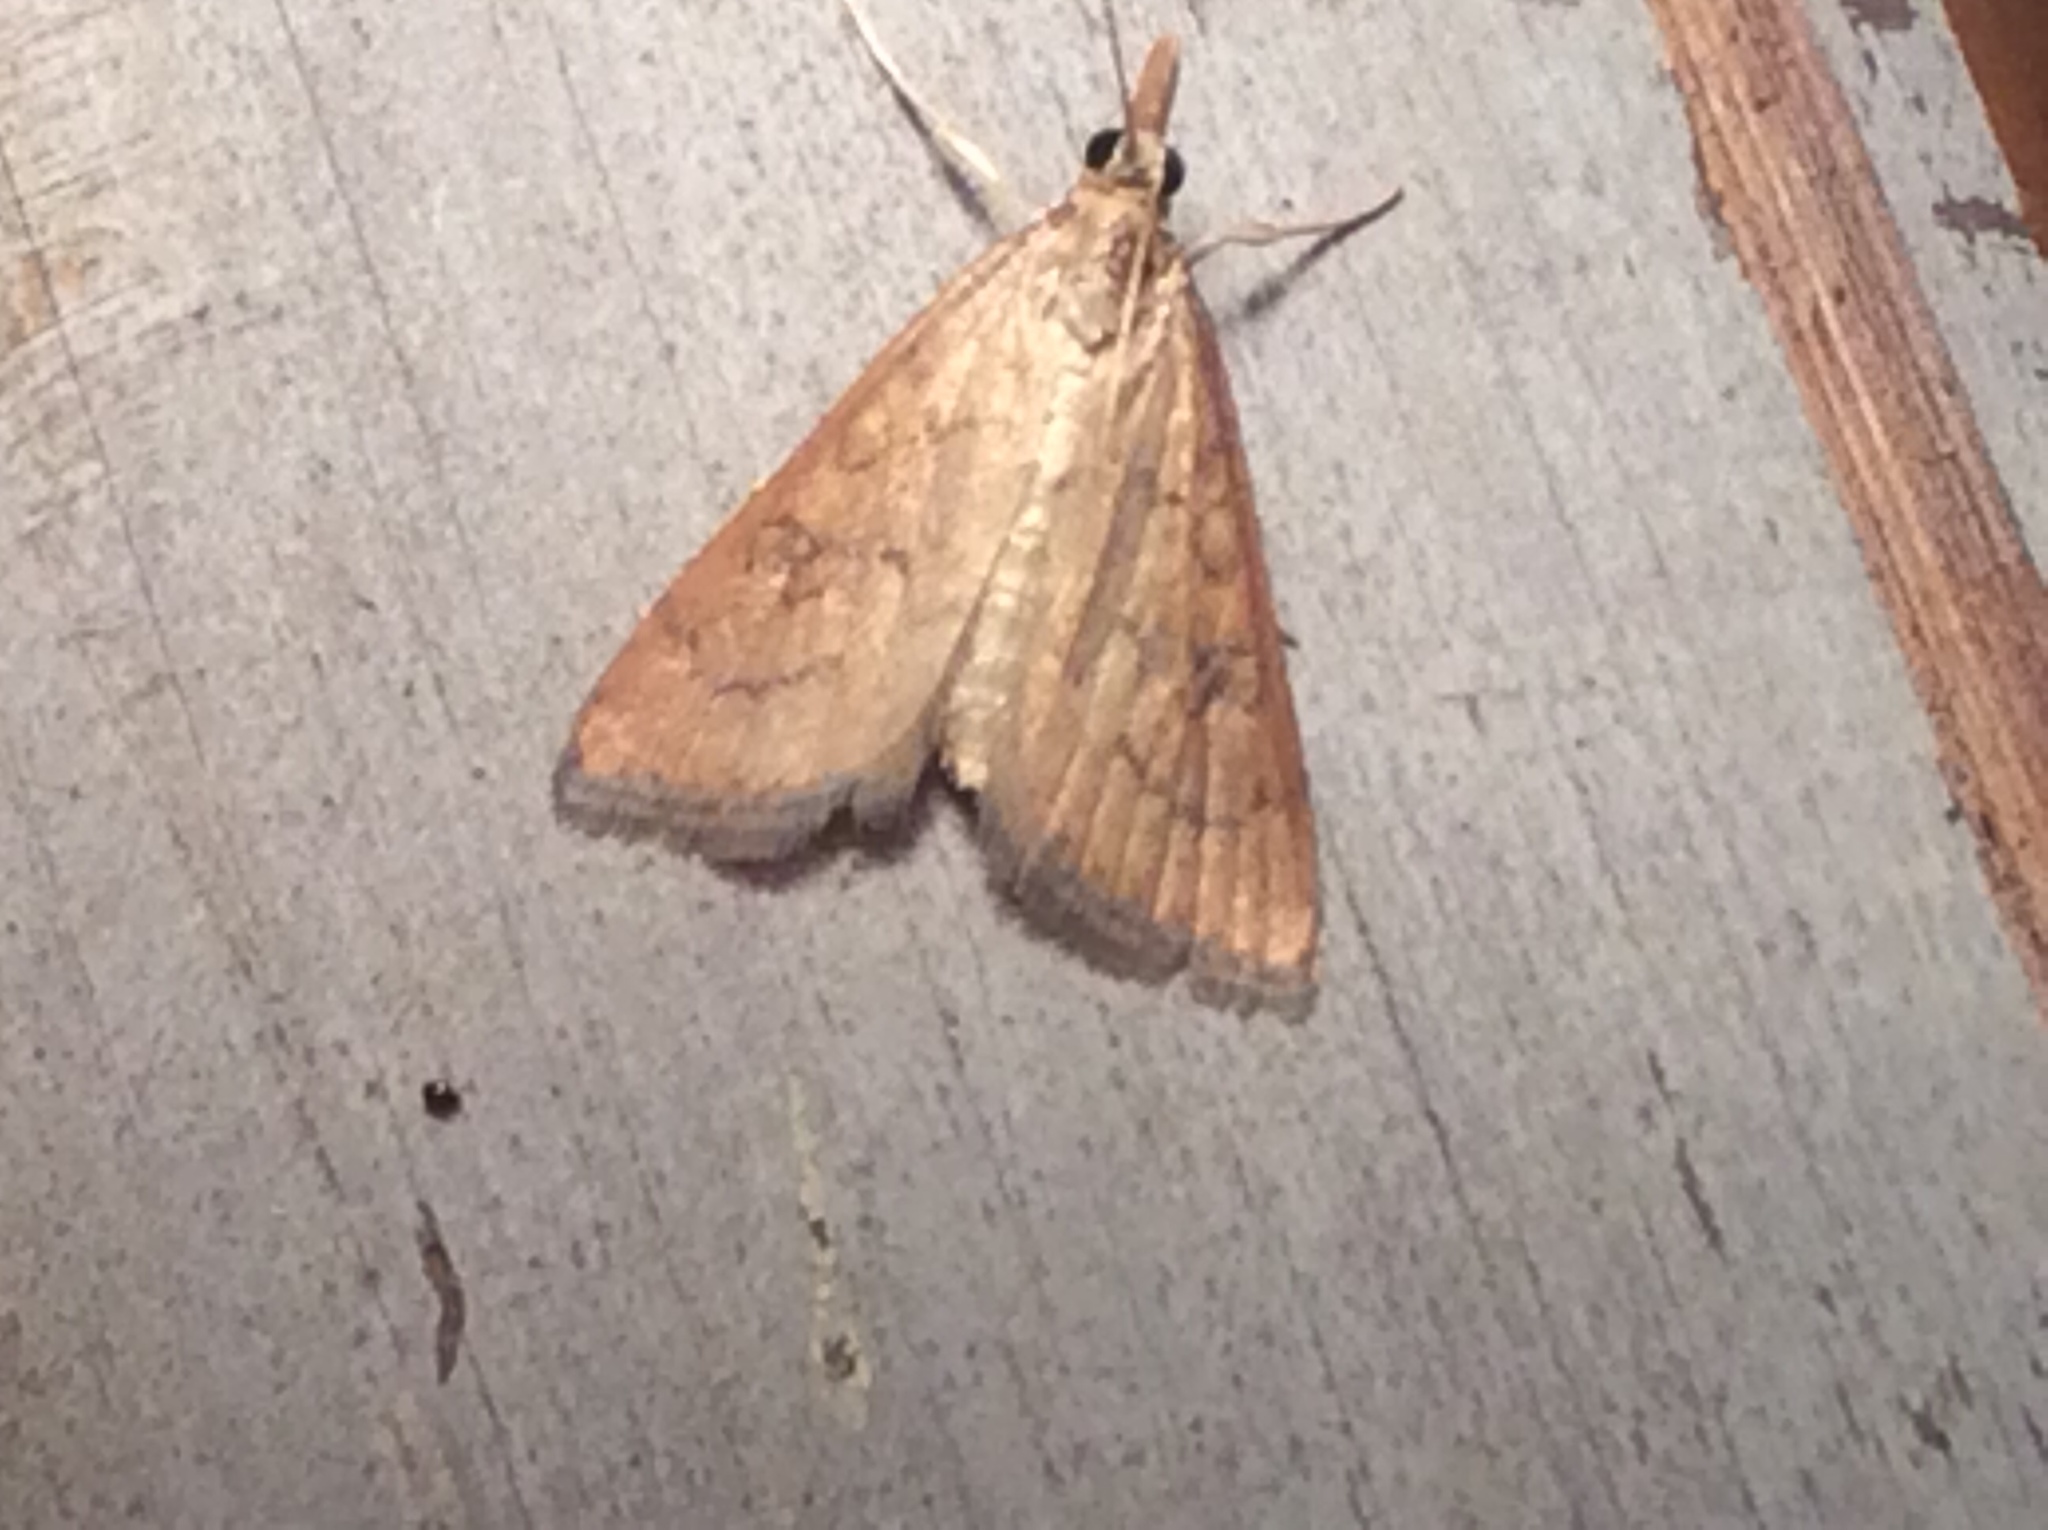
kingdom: Animalia
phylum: Arthropoda
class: Insecta
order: Lepidoptera
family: Crambidae
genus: Udea
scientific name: Udea rubigalis
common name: Celery leaftier moth
